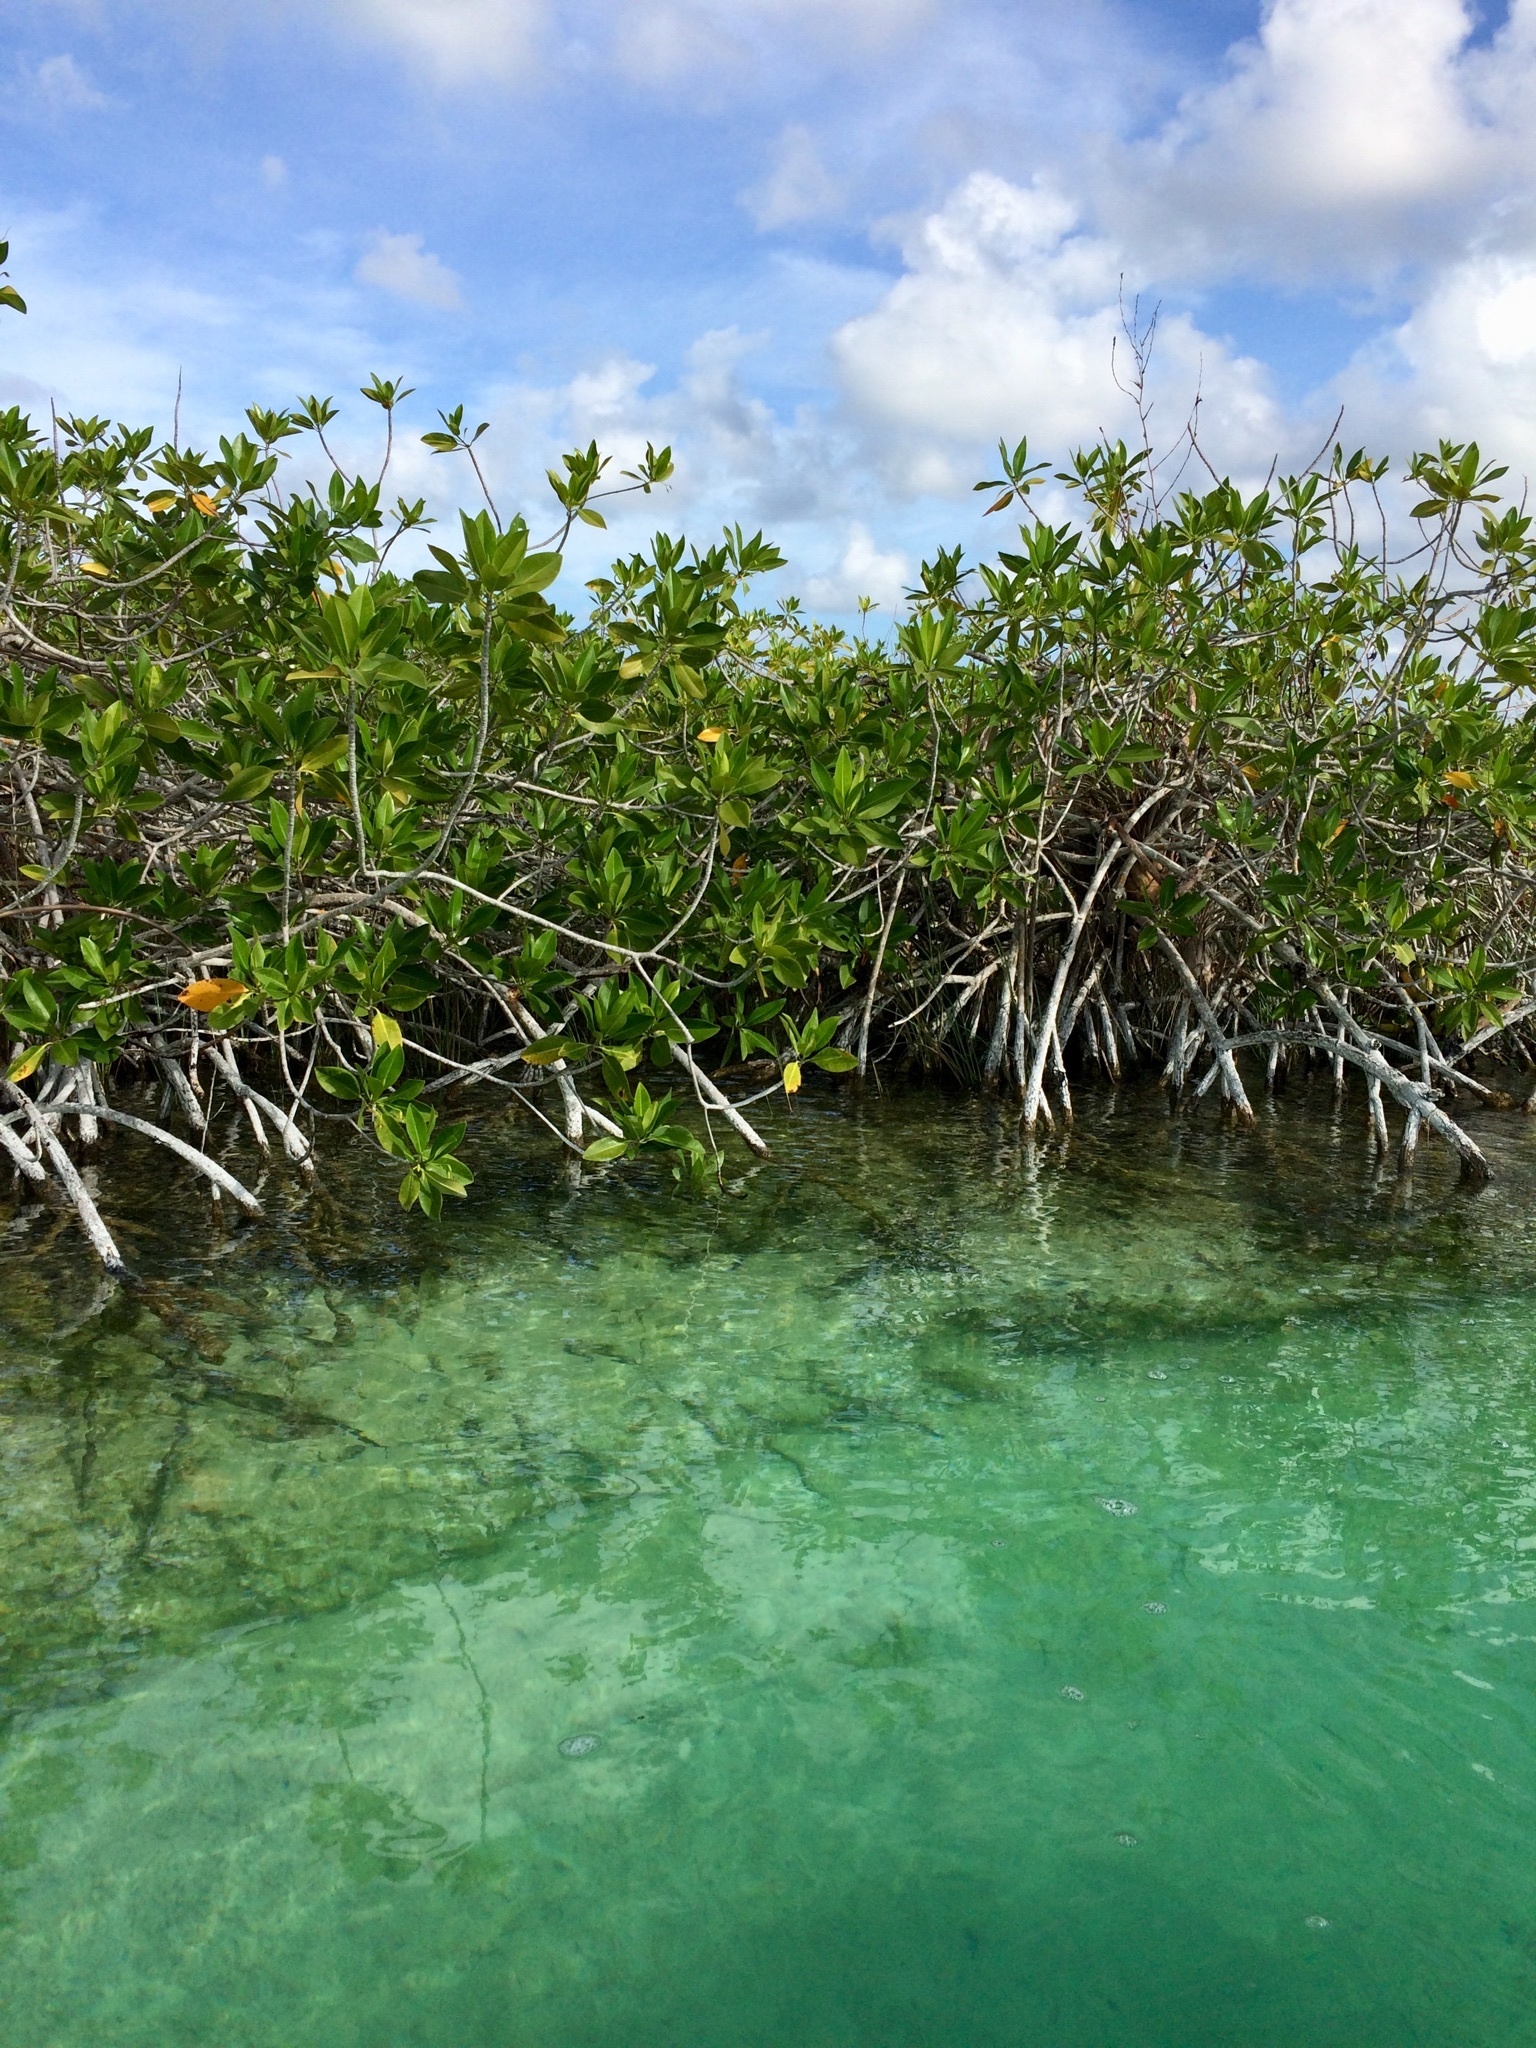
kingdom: Plantae
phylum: Tracheophyta
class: Magnoliopsida
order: Malpighiales
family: Rhizophoraceae
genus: Rhizophora
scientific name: Rhizophora mangle
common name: Red mangrove
